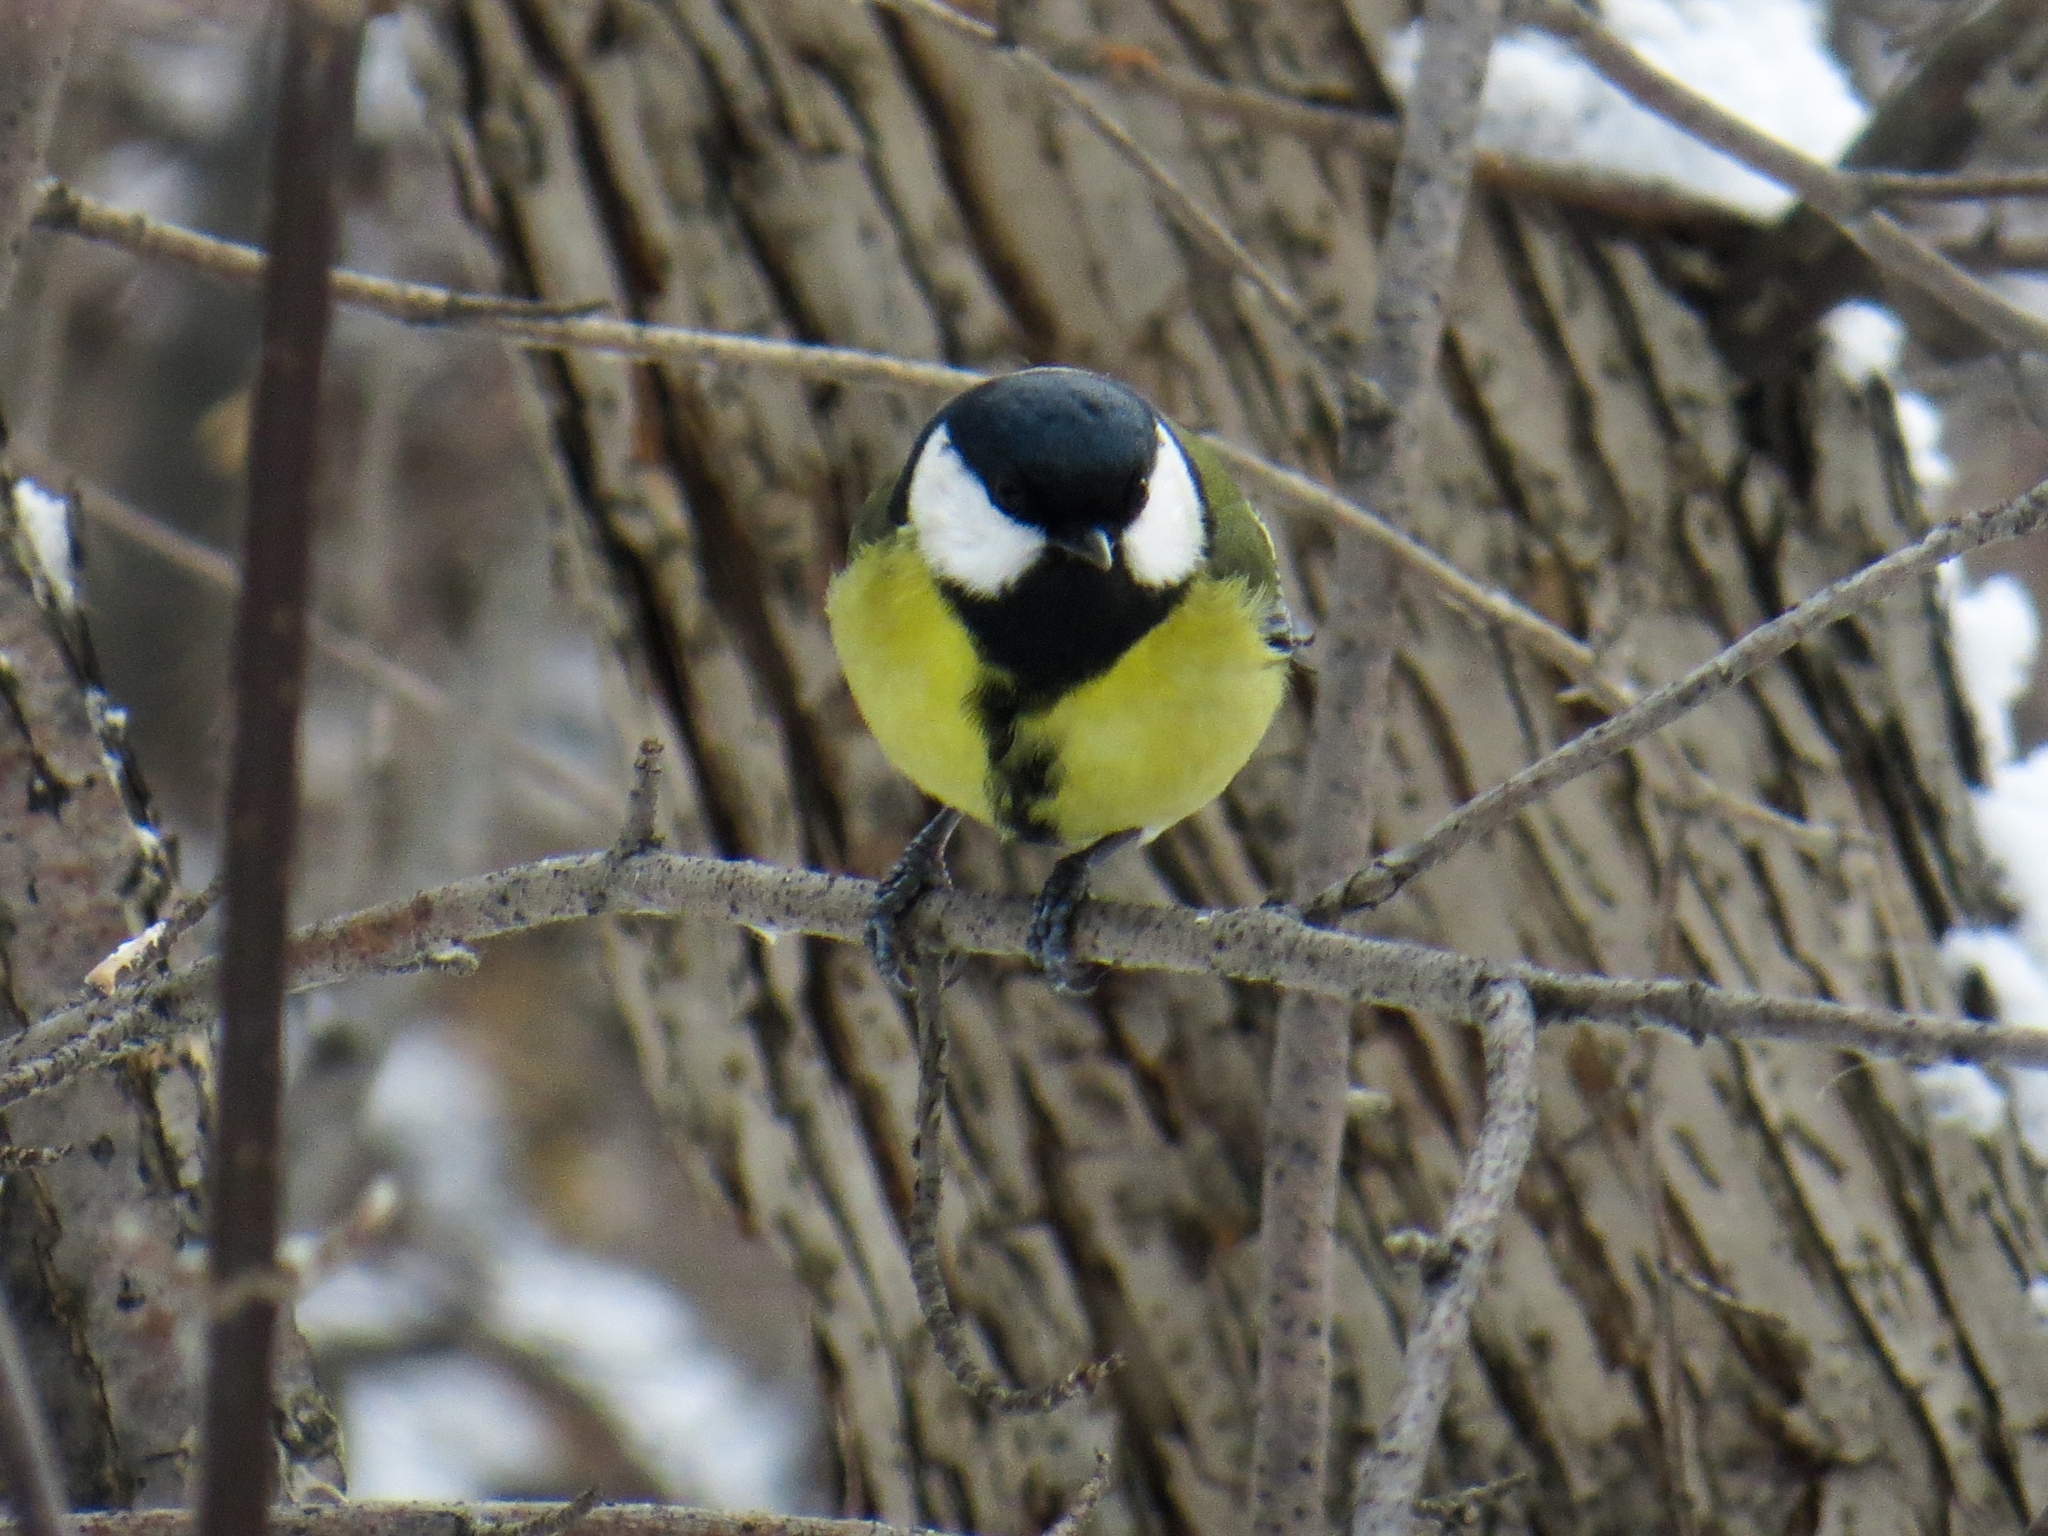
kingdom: Animalia
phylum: Chordata
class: Aves
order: Passeriformes
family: Paridae
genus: Parus
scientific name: Parus major
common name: Great tit
